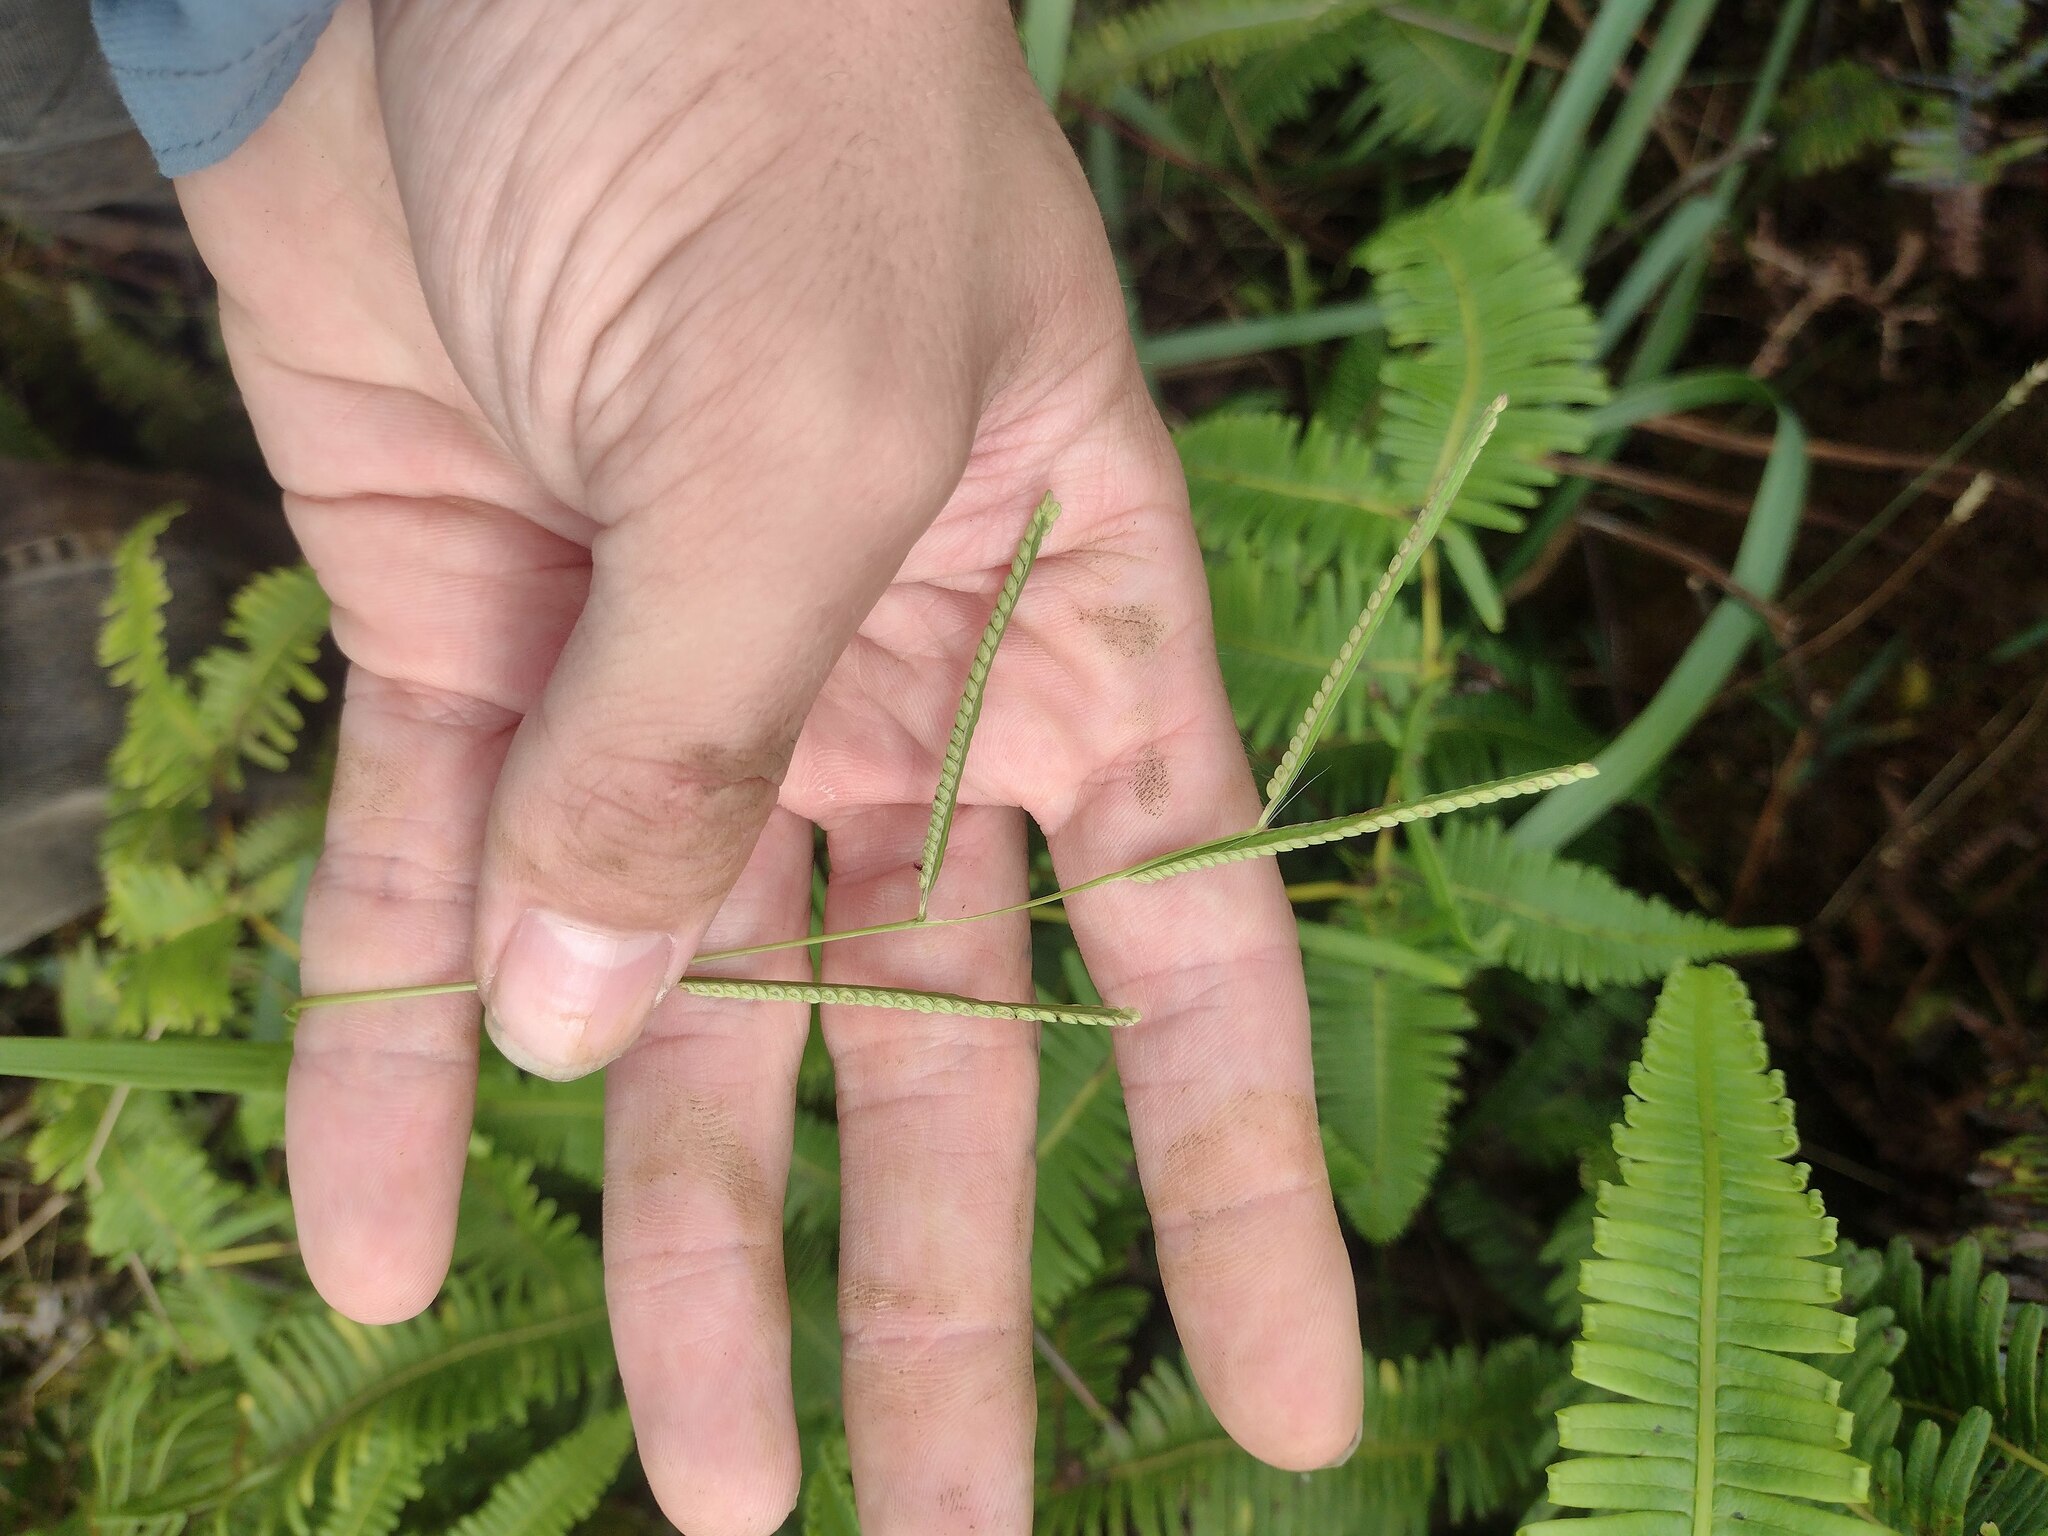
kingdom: Plantae
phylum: Tracheophyta
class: Liliopsida
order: Poales
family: Poaceae
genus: Paspalum
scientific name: Paspalum scrobiculatum
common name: Kodo millet
